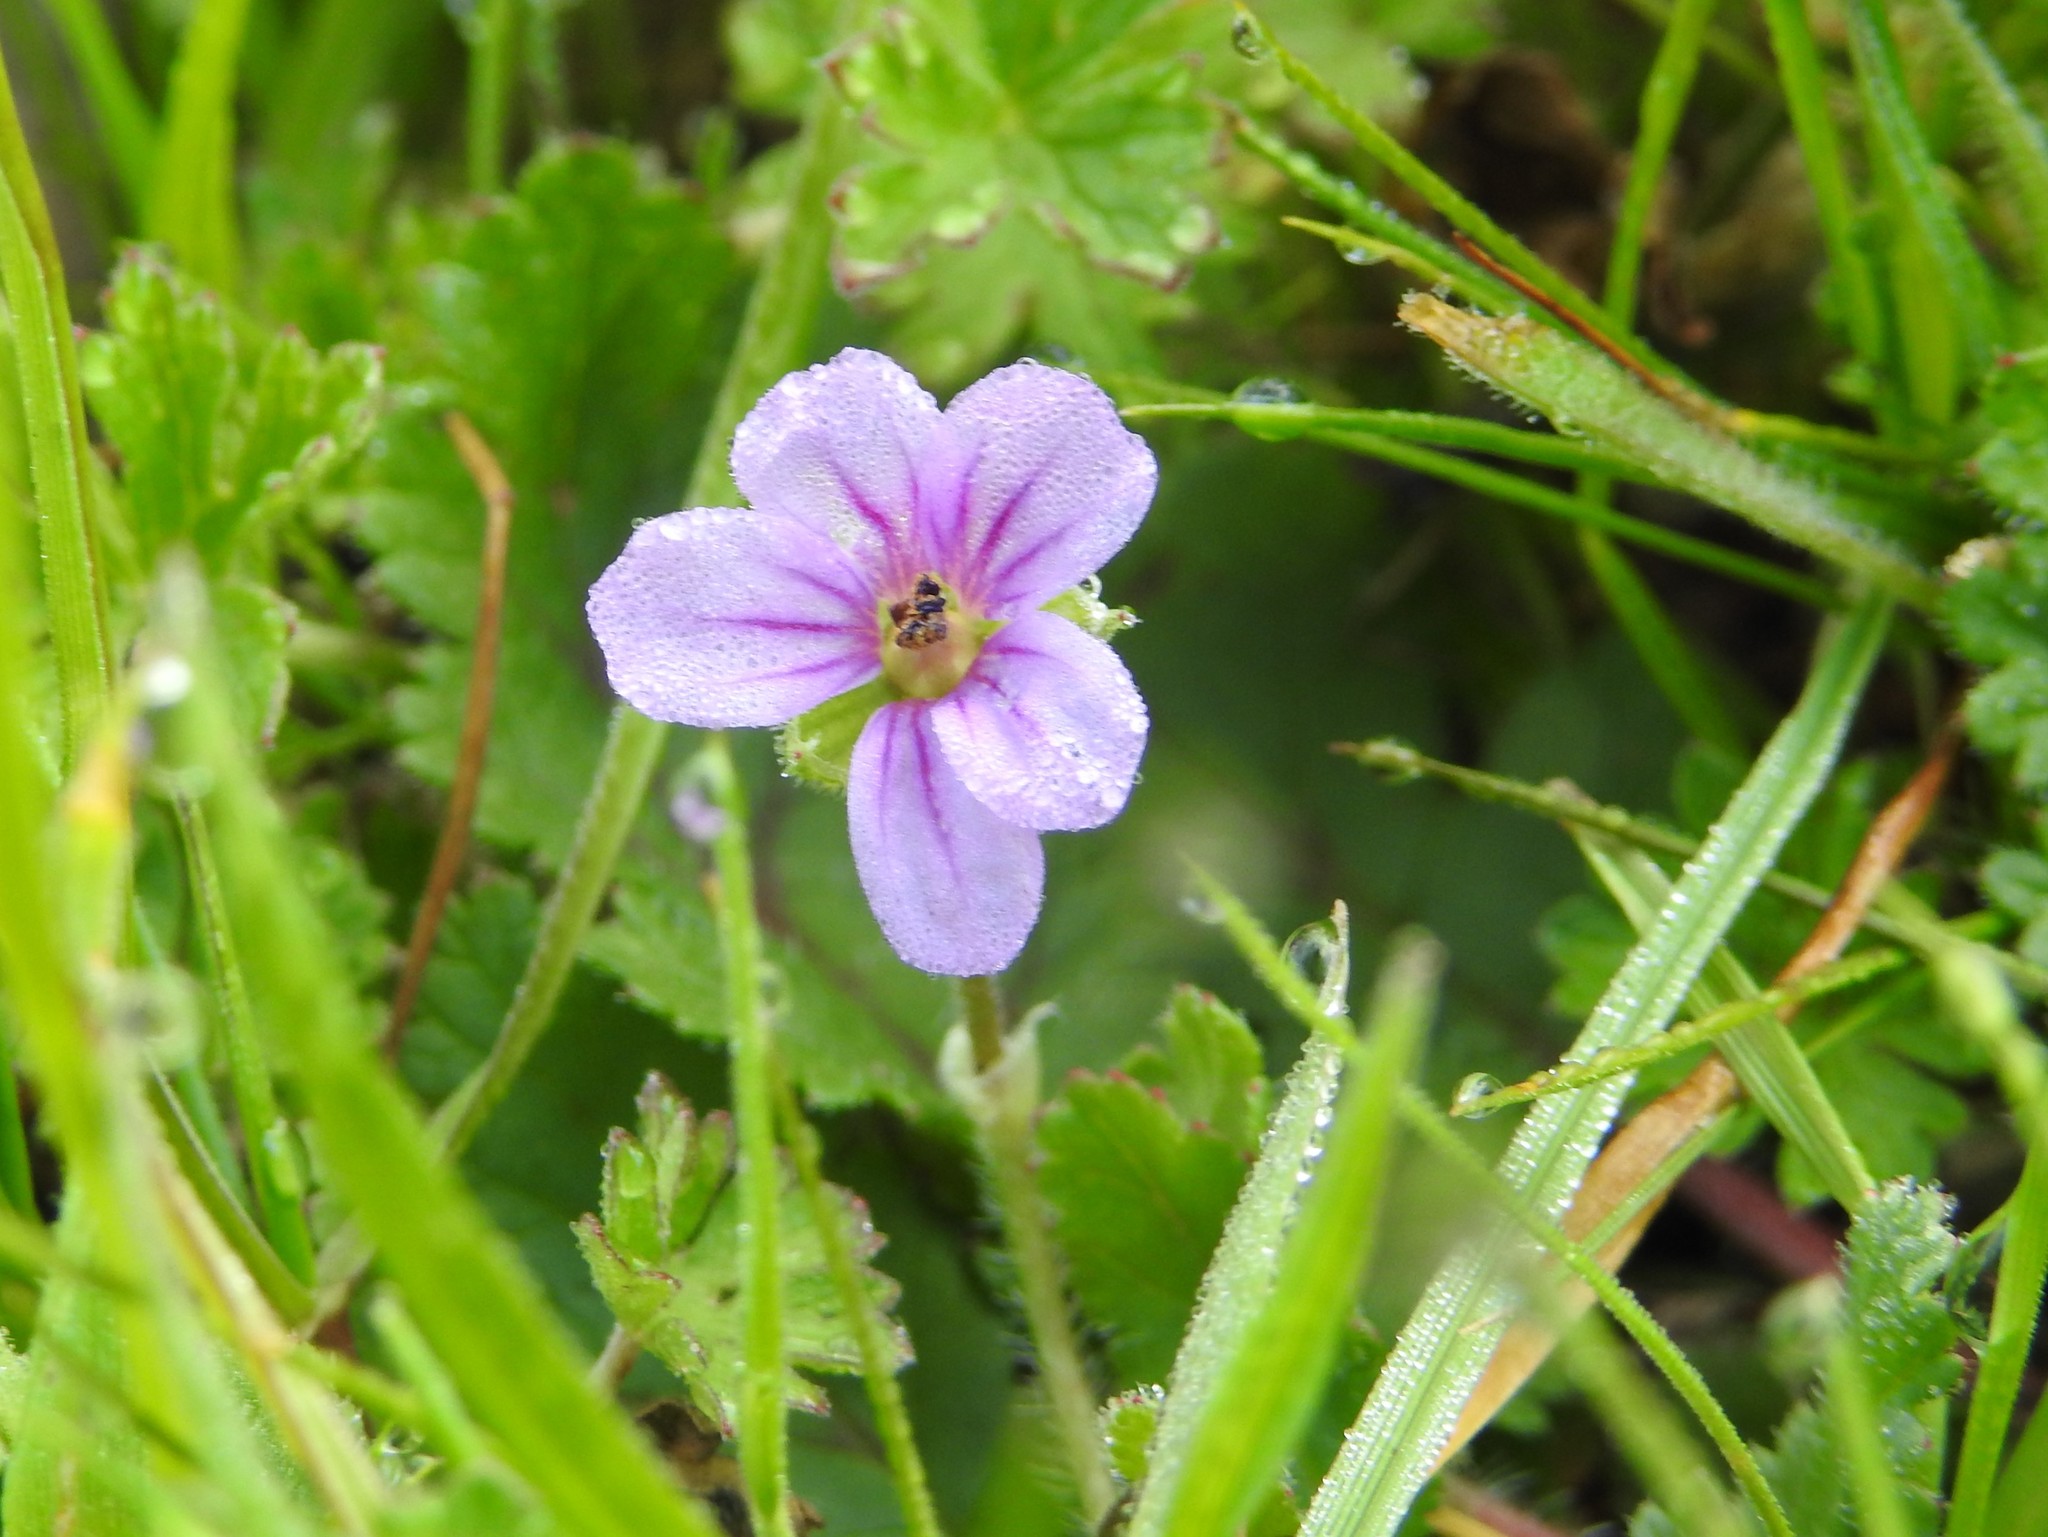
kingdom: Plantae
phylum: Tracheophyta
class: Magnoliopsida
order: Geraniales
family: Geraniaceae
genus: Erodium
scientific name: Erodium botrys
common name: Mediterranean stork's-bill
